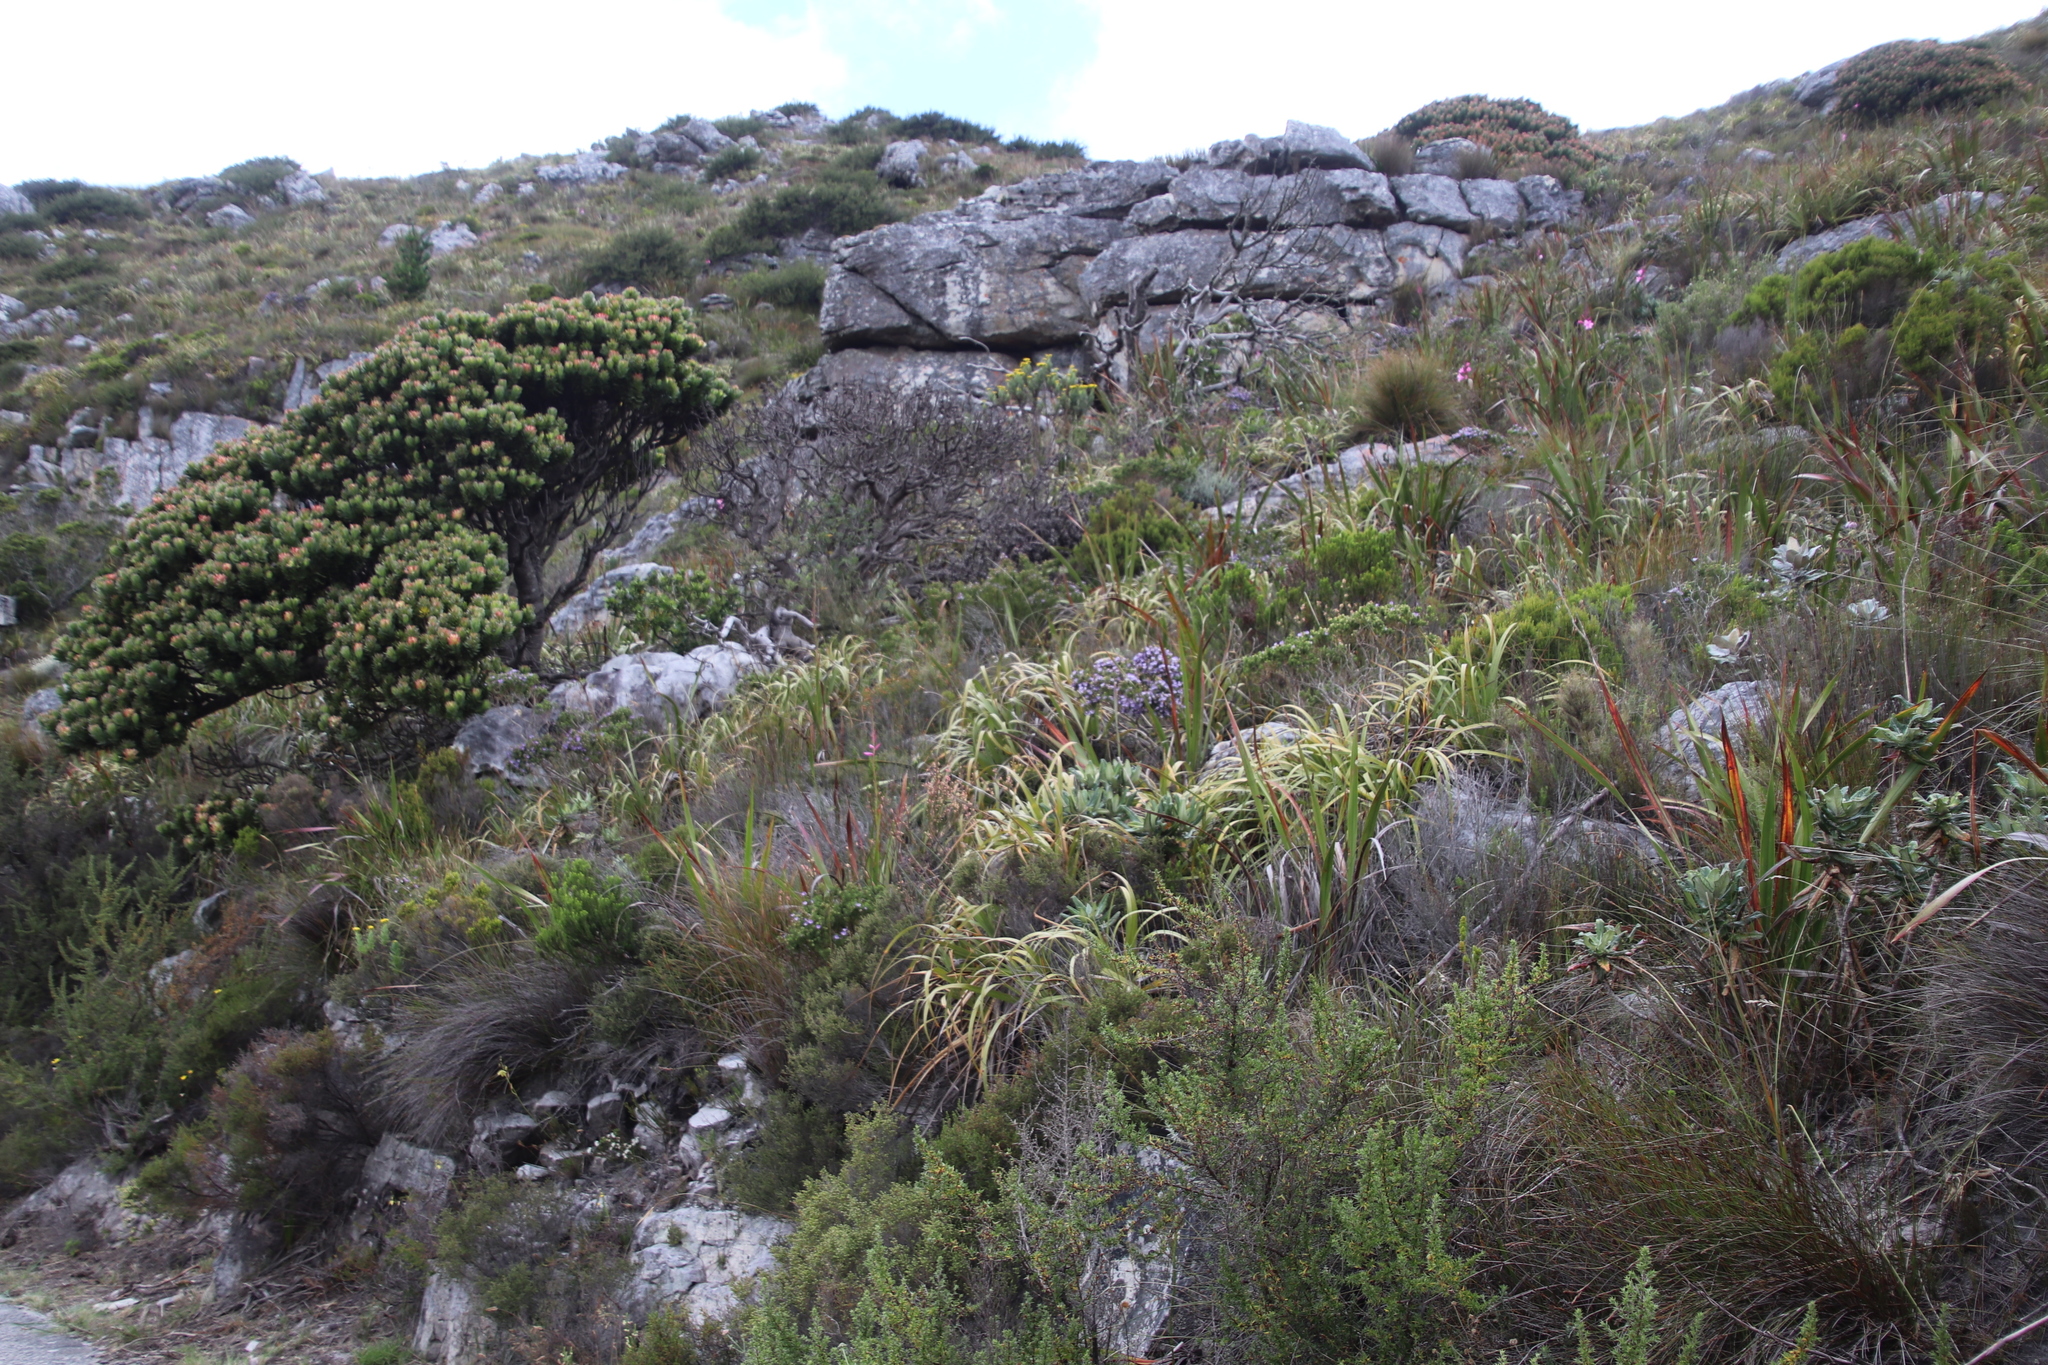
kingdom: Plantae
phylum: Tracheophyta
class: Magnoliopsida
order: Fabales
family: Fabaceae
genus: Psoralea
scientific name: Psoralea aculeata
